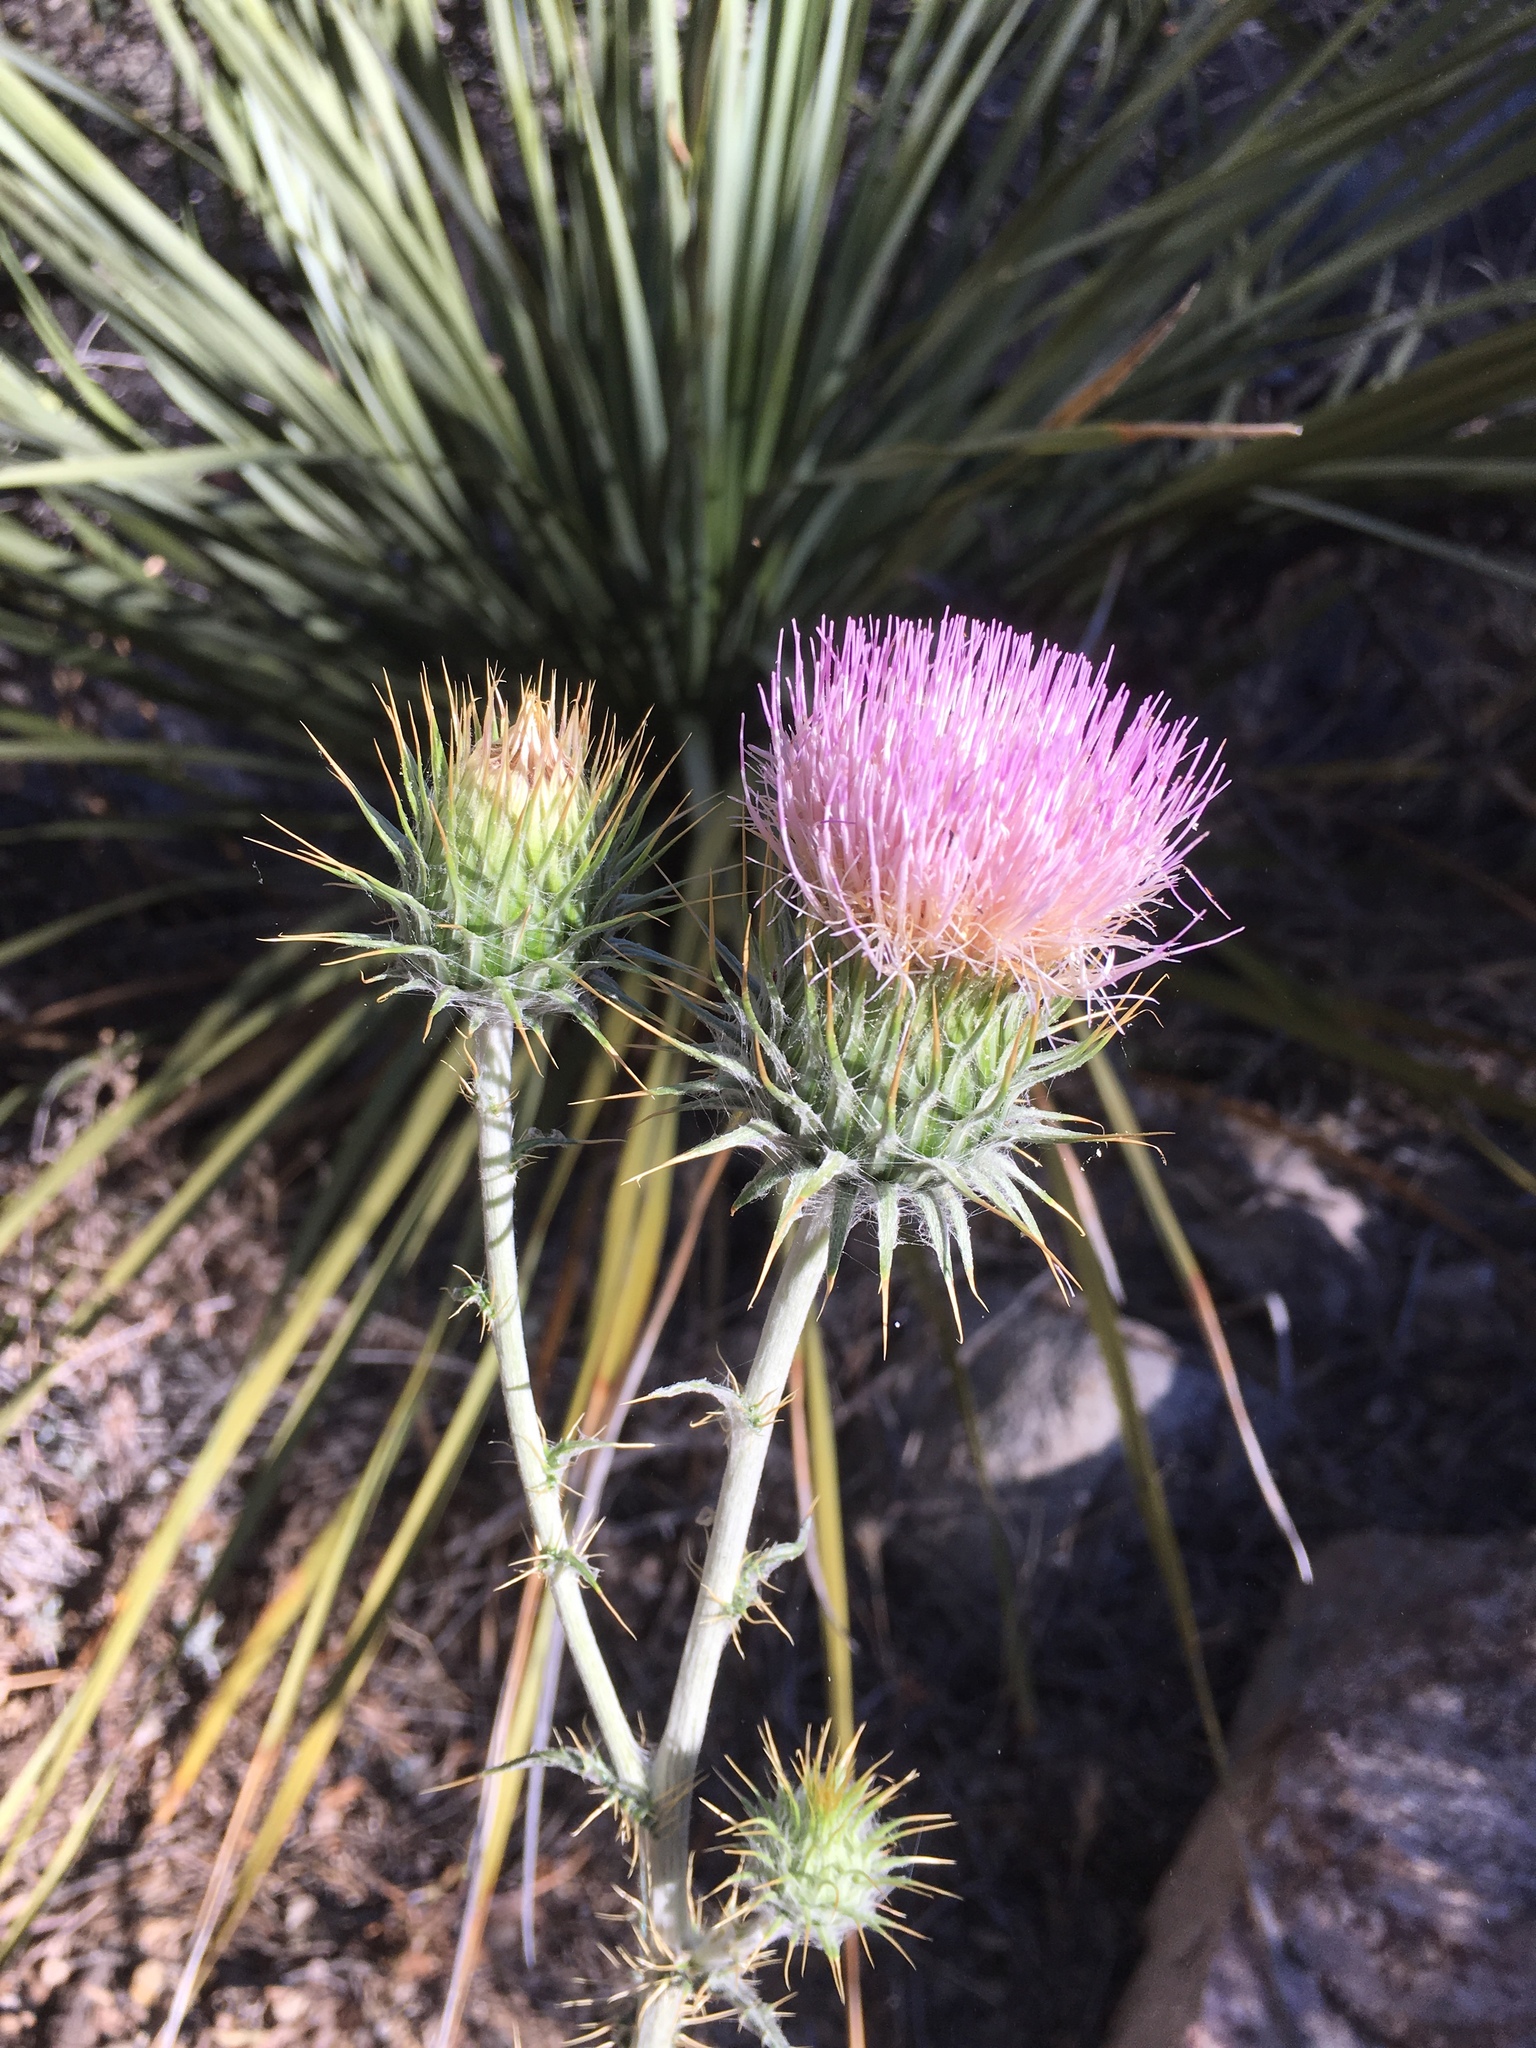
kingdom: Plantae
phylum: Tracheophyta
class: Magnoliopsida
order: Asterales
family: Asteraceae
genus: Cirsium
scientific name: Cirsium neomexicanum
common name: New mexico thistle
